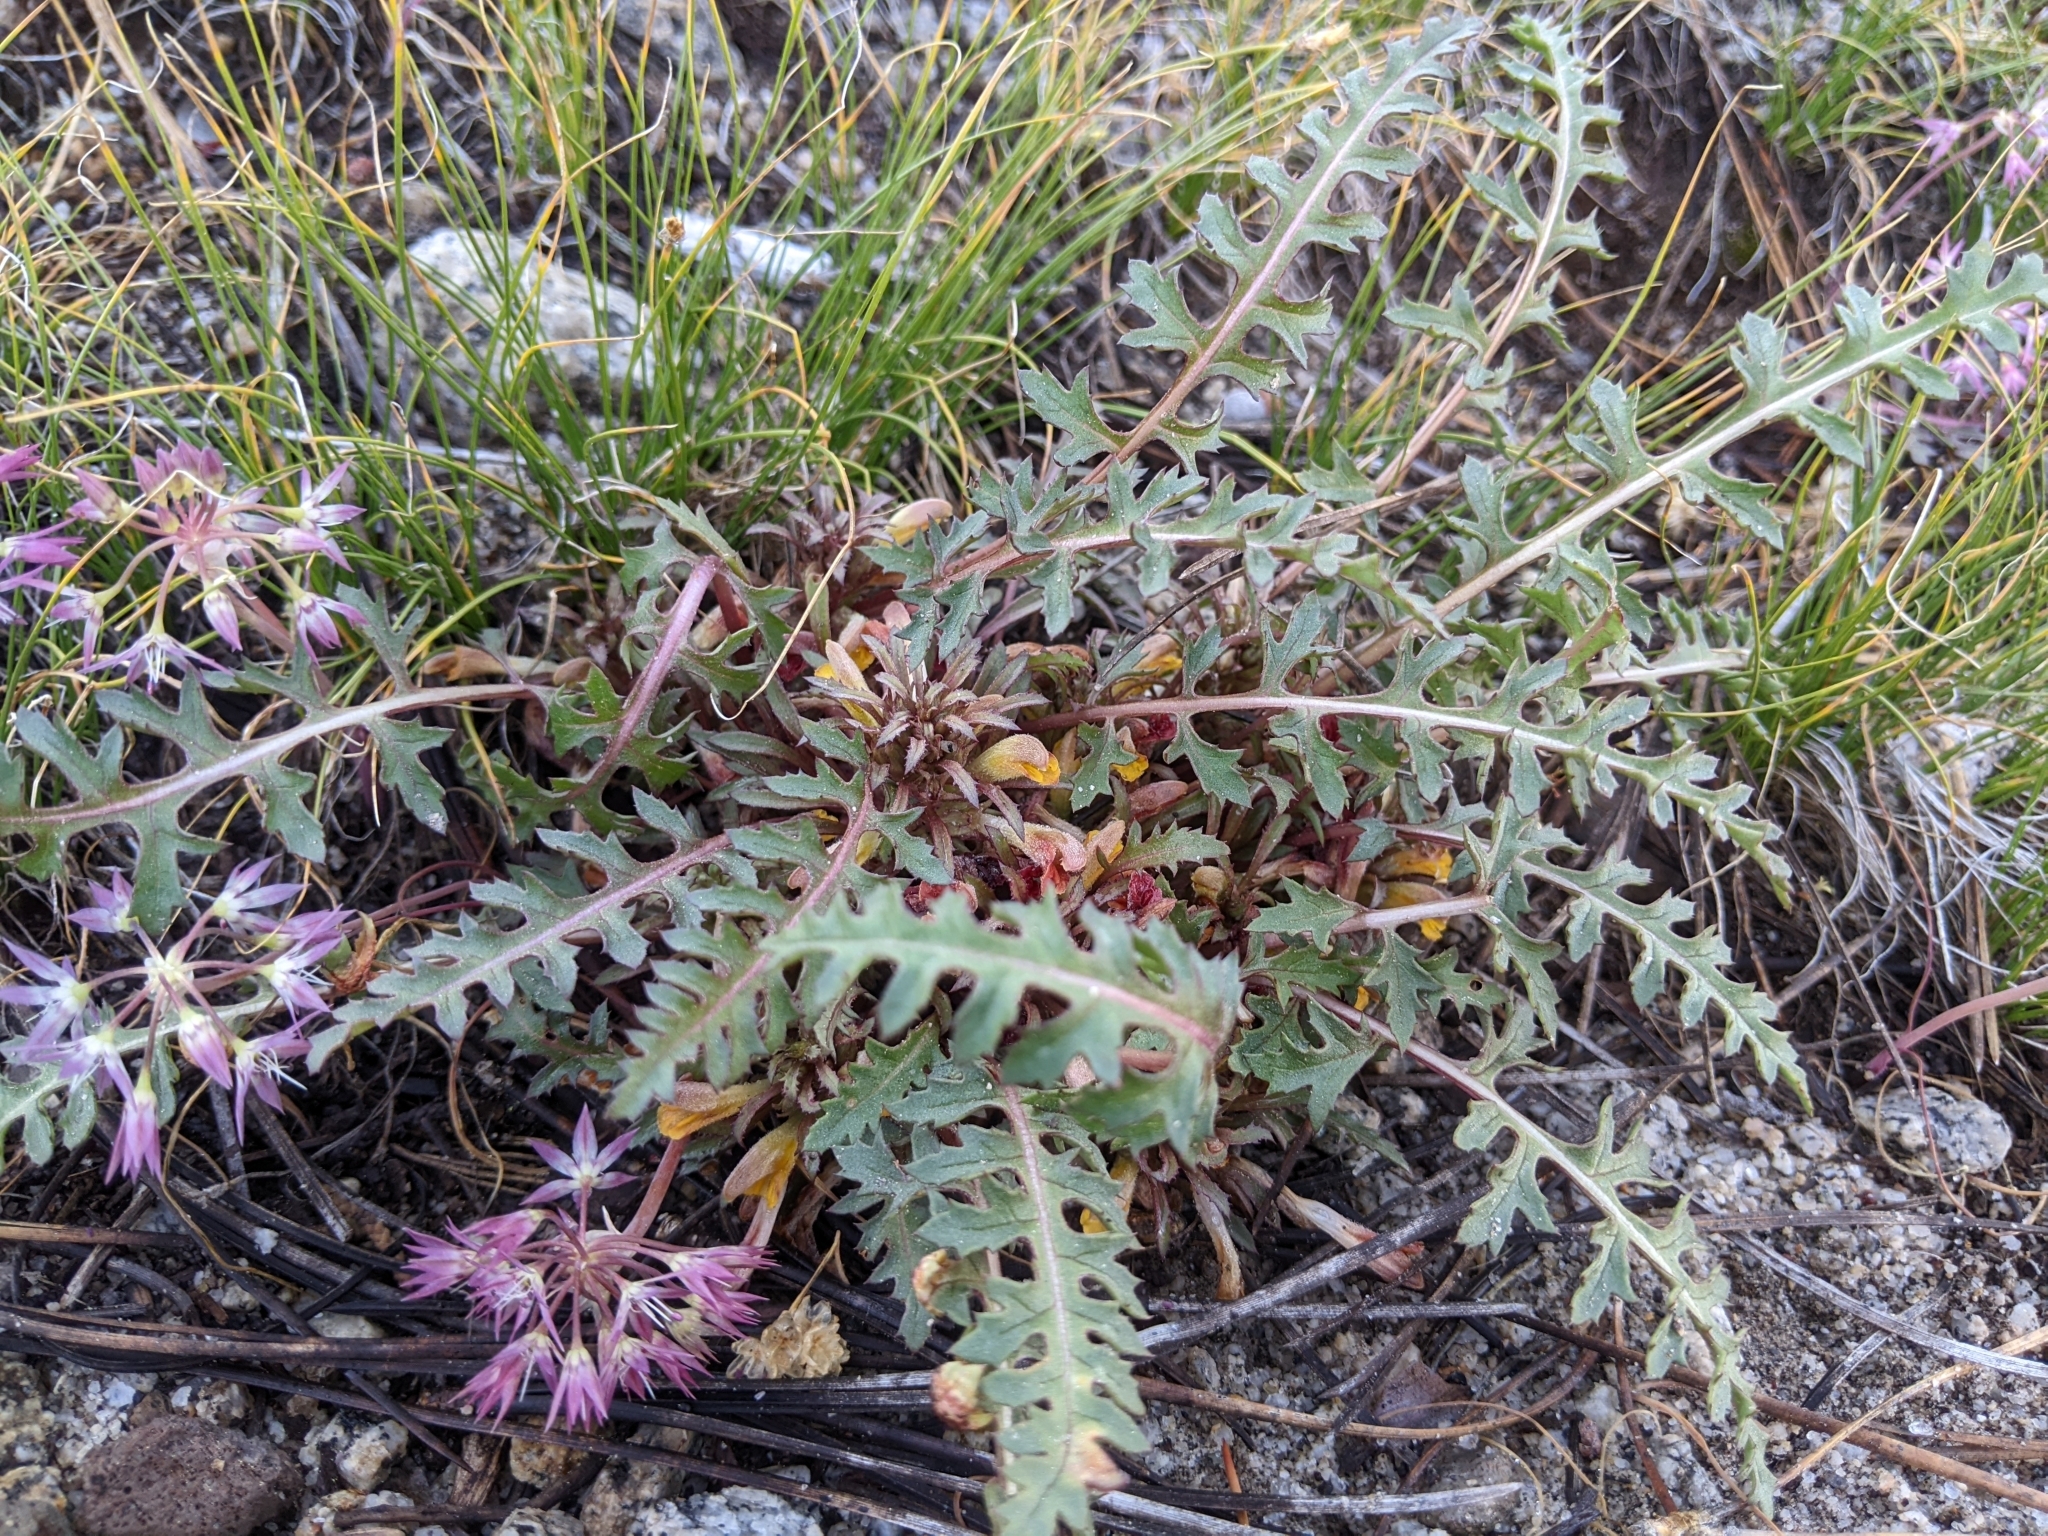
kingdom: Plantae
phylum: Tracheophyta
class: Magnoliopsida
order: Lamiales
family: Orobanchaceae
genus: Pedicularis
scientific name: Pedicularis semibarbata
